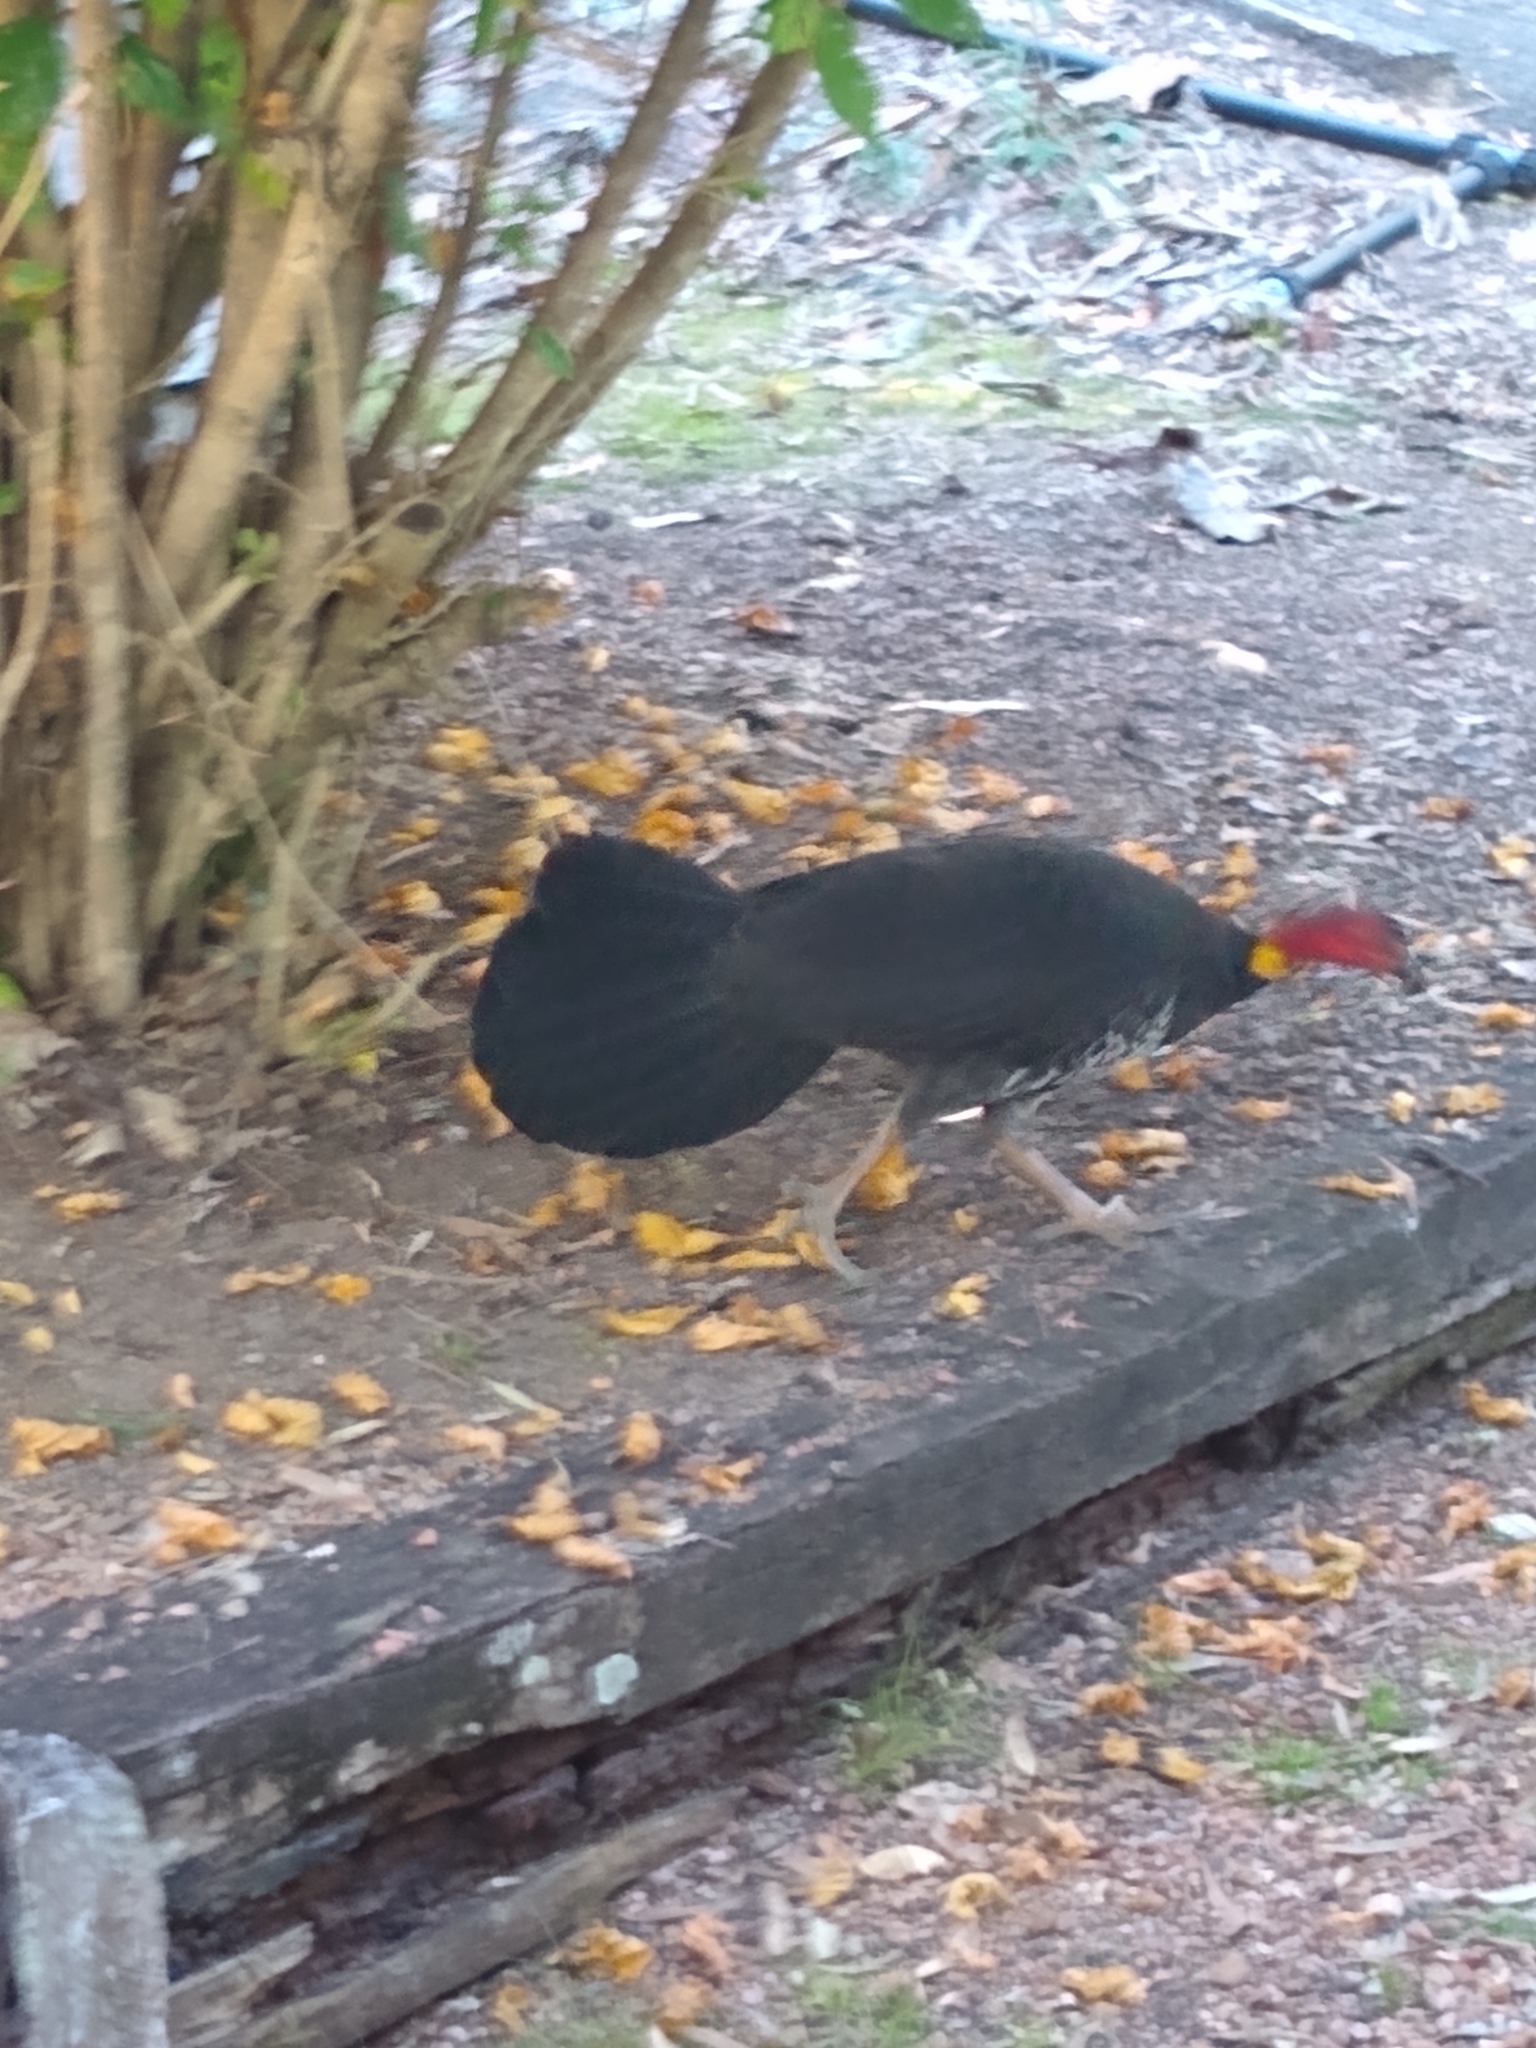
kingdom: Animalia
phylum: Chordata
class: Aves
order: Galliformes
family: Megapodiidae
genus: Alectura
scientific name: Alectura lathami
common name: Australian brushturkey
